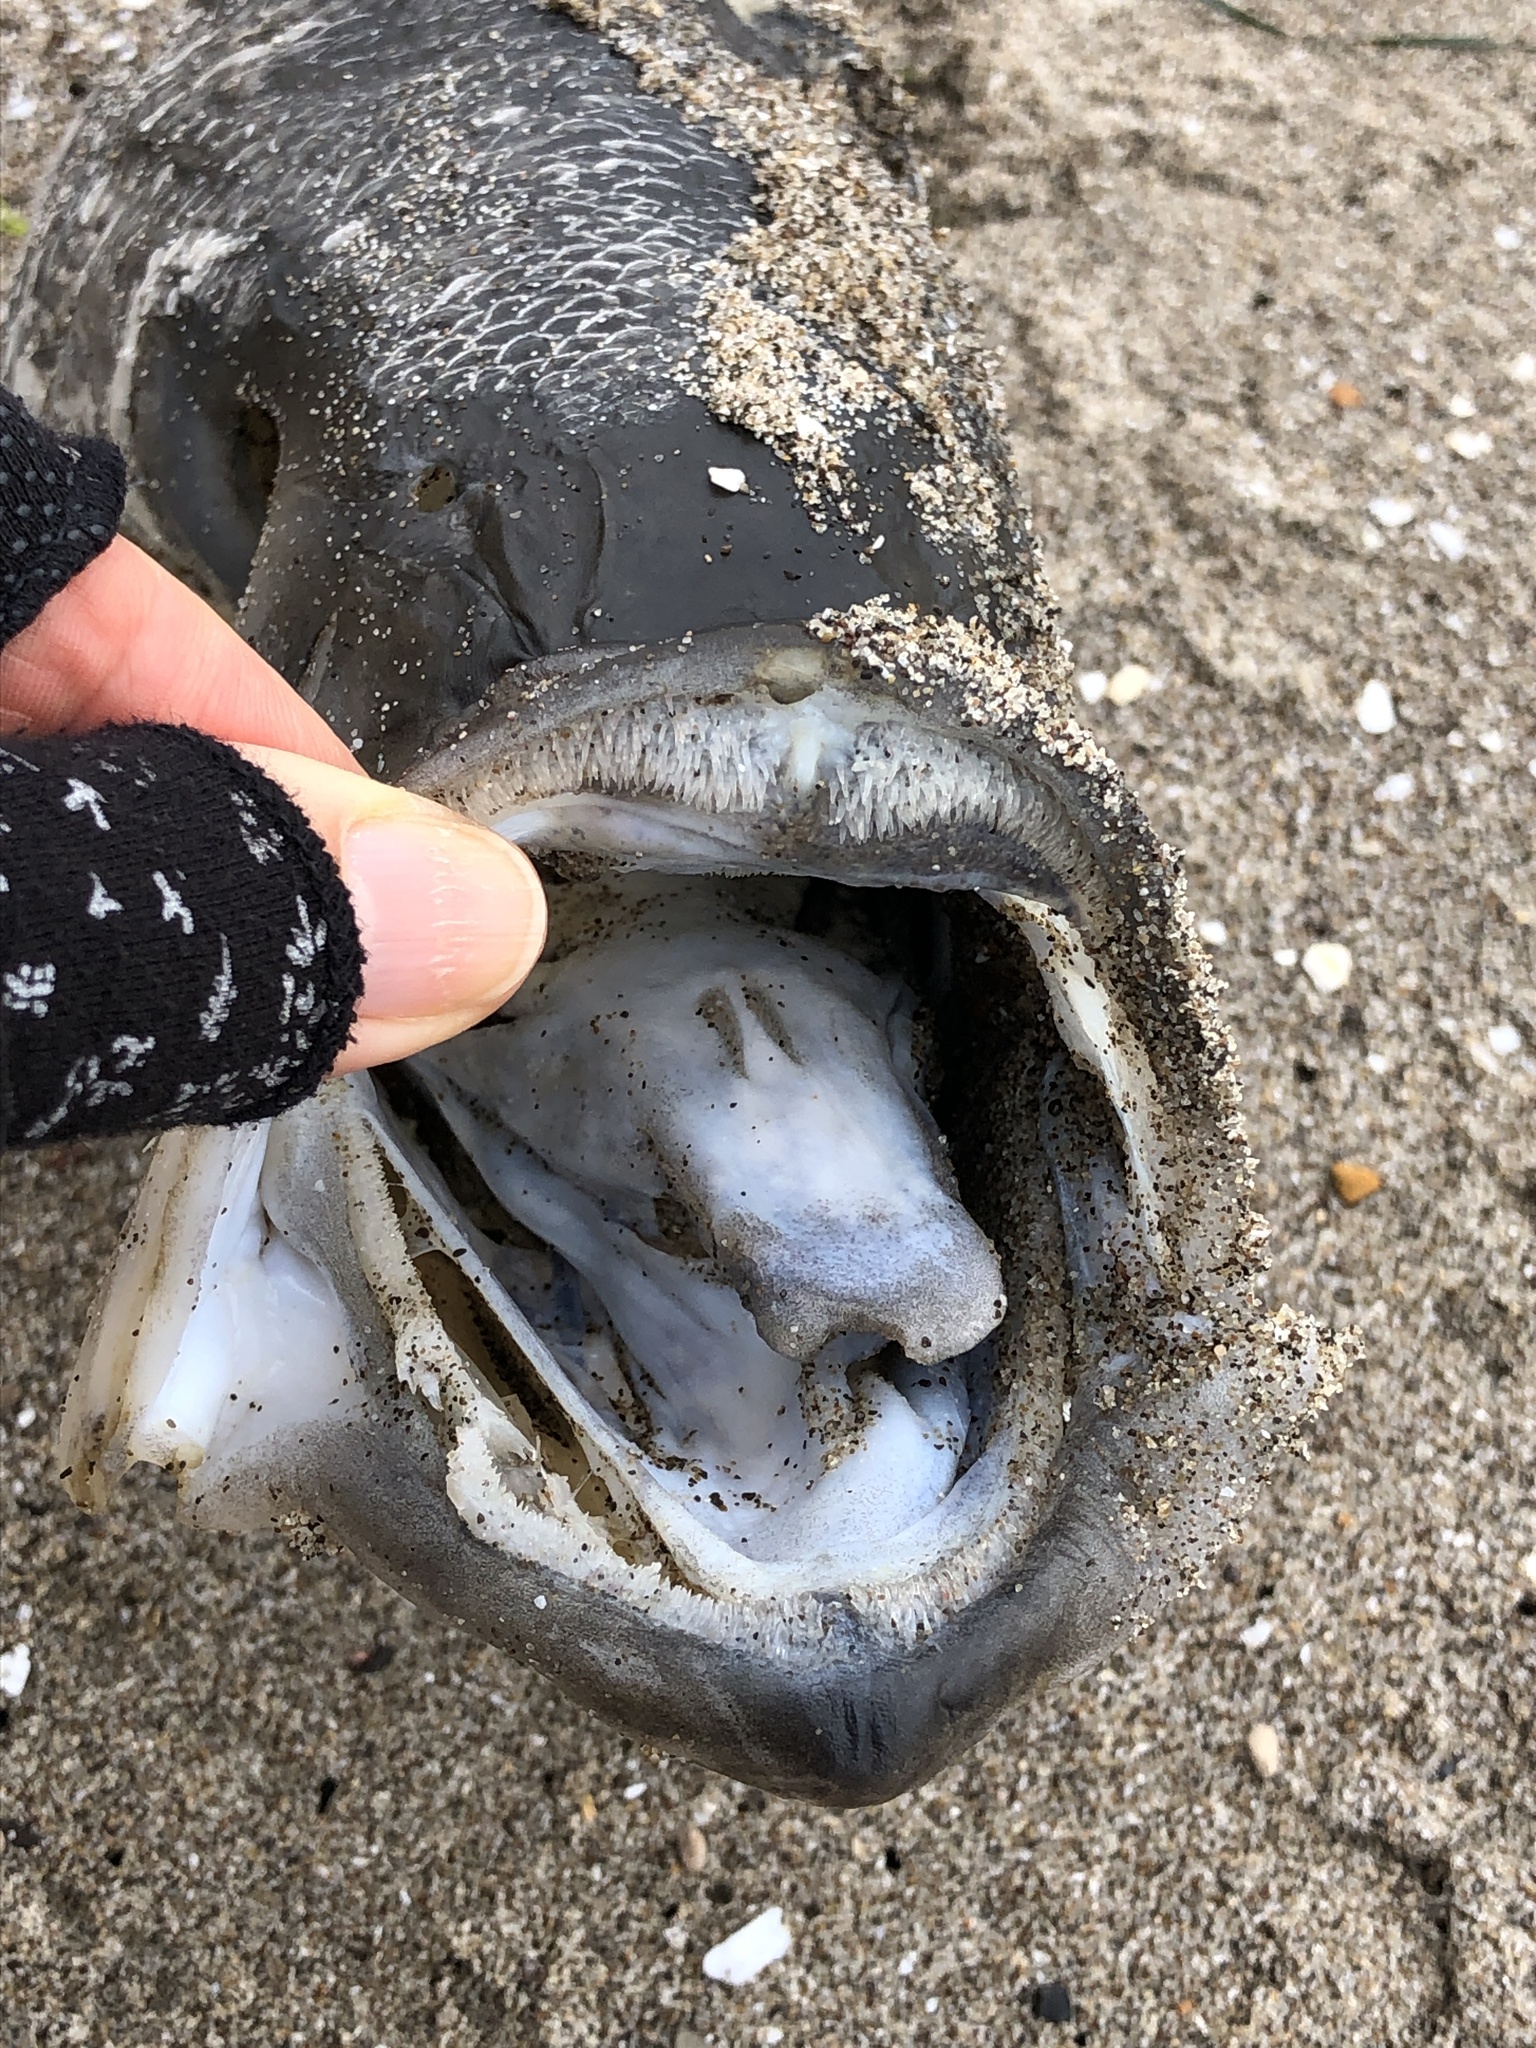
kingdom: Animalia
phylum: Chordata
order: Perciformes
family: Moronidae
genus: Morone
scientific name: Morone saxatilis
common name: Striped bass
